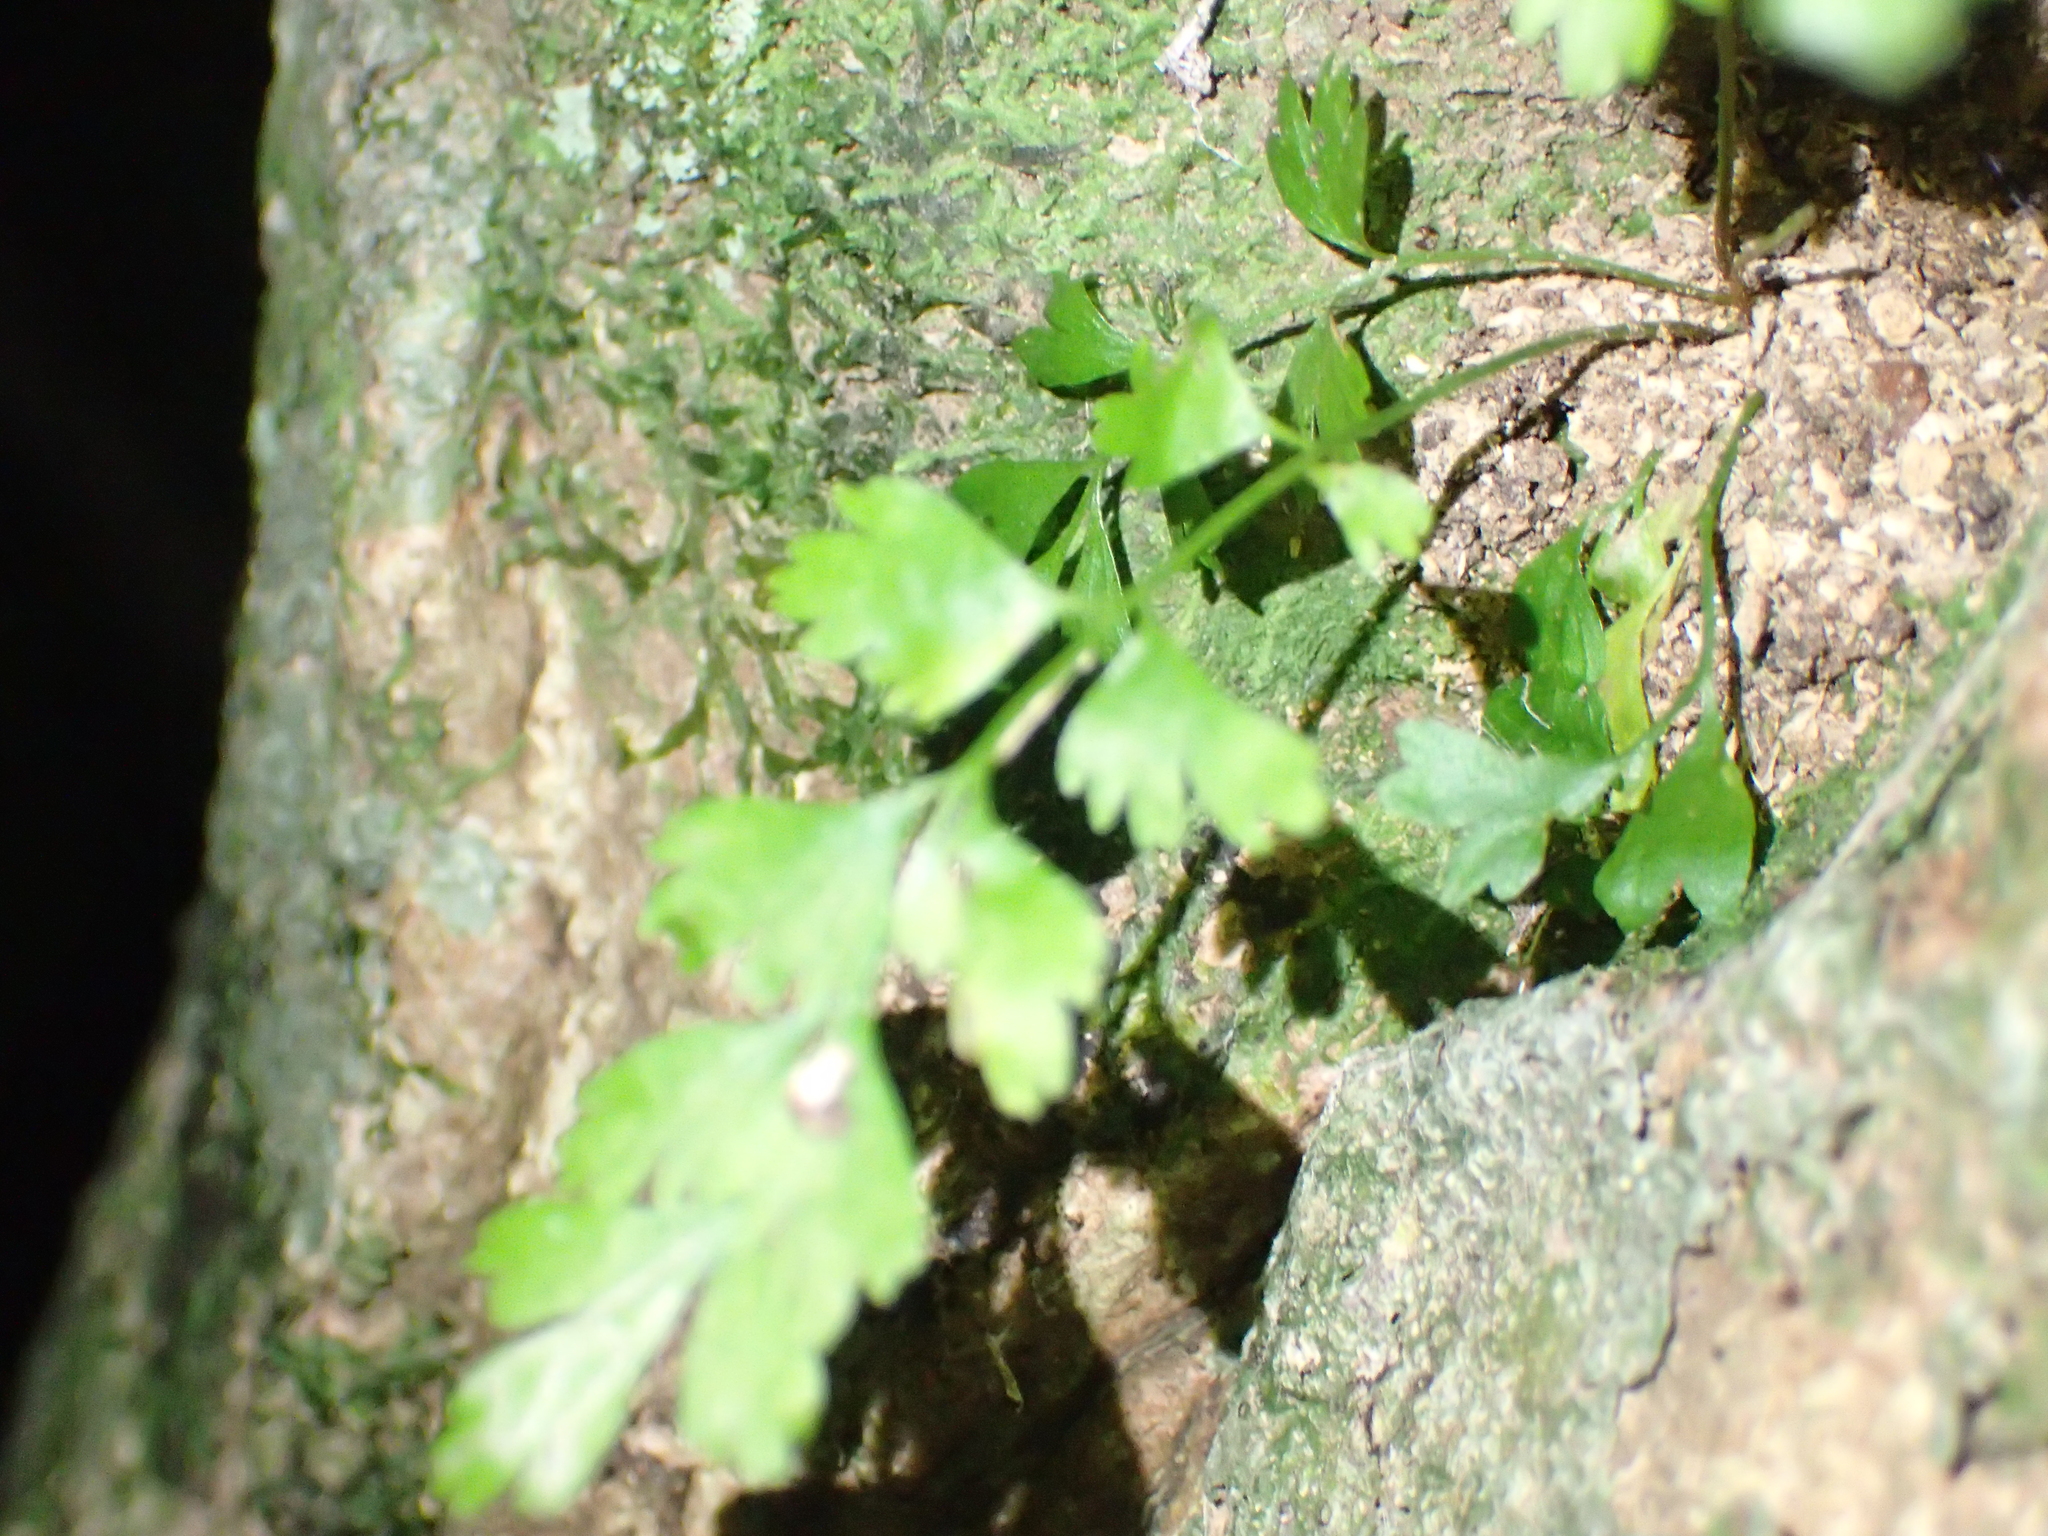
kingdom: Plantae
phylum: Tracheophyta
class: Polypodiopsida
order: Polypodiales
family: Aspleniaceae
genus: Asplenium
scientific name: Asplenium polyodon
